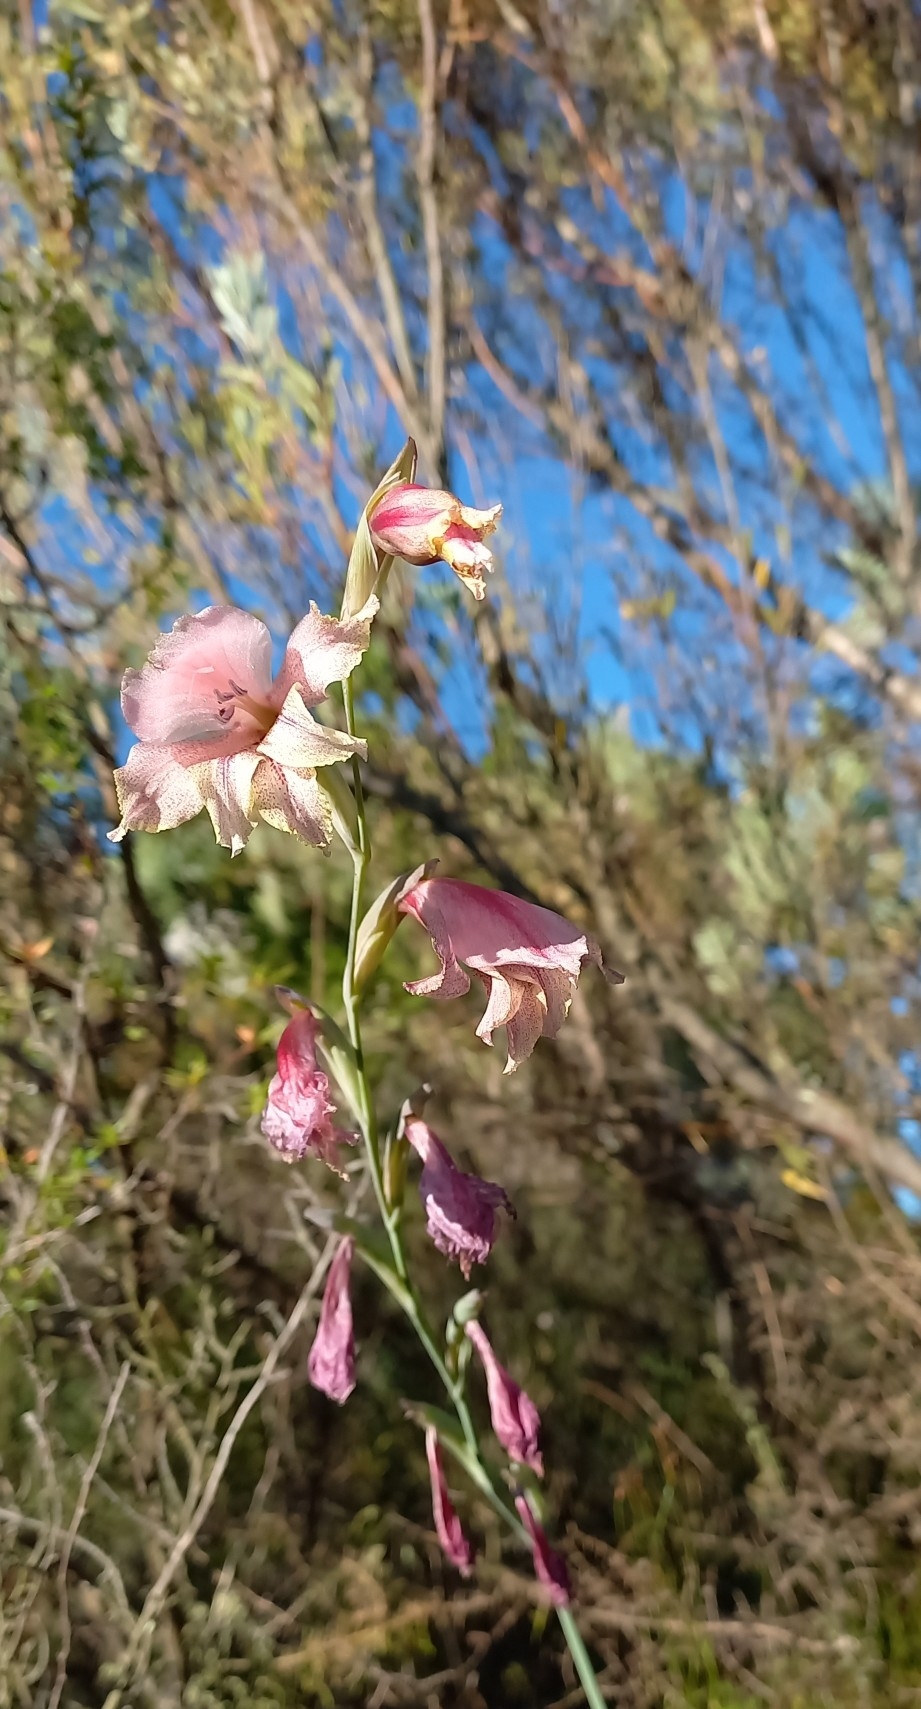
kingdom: Plantae
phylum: Tracheophyta
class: Liliopsida
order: Asparagales
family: Iridaceae
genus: Gladiolus
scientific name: Gladiolus guthriei
